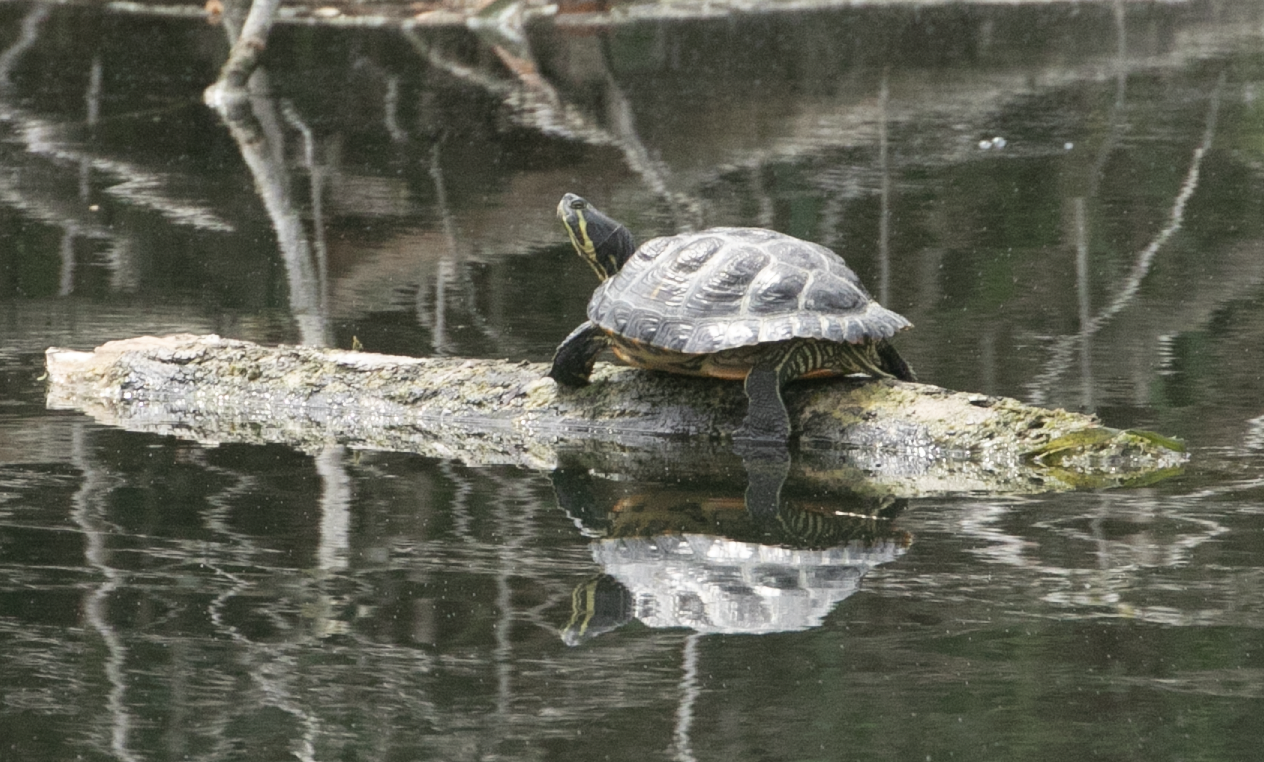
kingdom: Animalia
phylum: Chordata
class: Testudines
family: Emydidae
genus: Trachemys
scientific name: Trachemys scripta
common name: Slider
